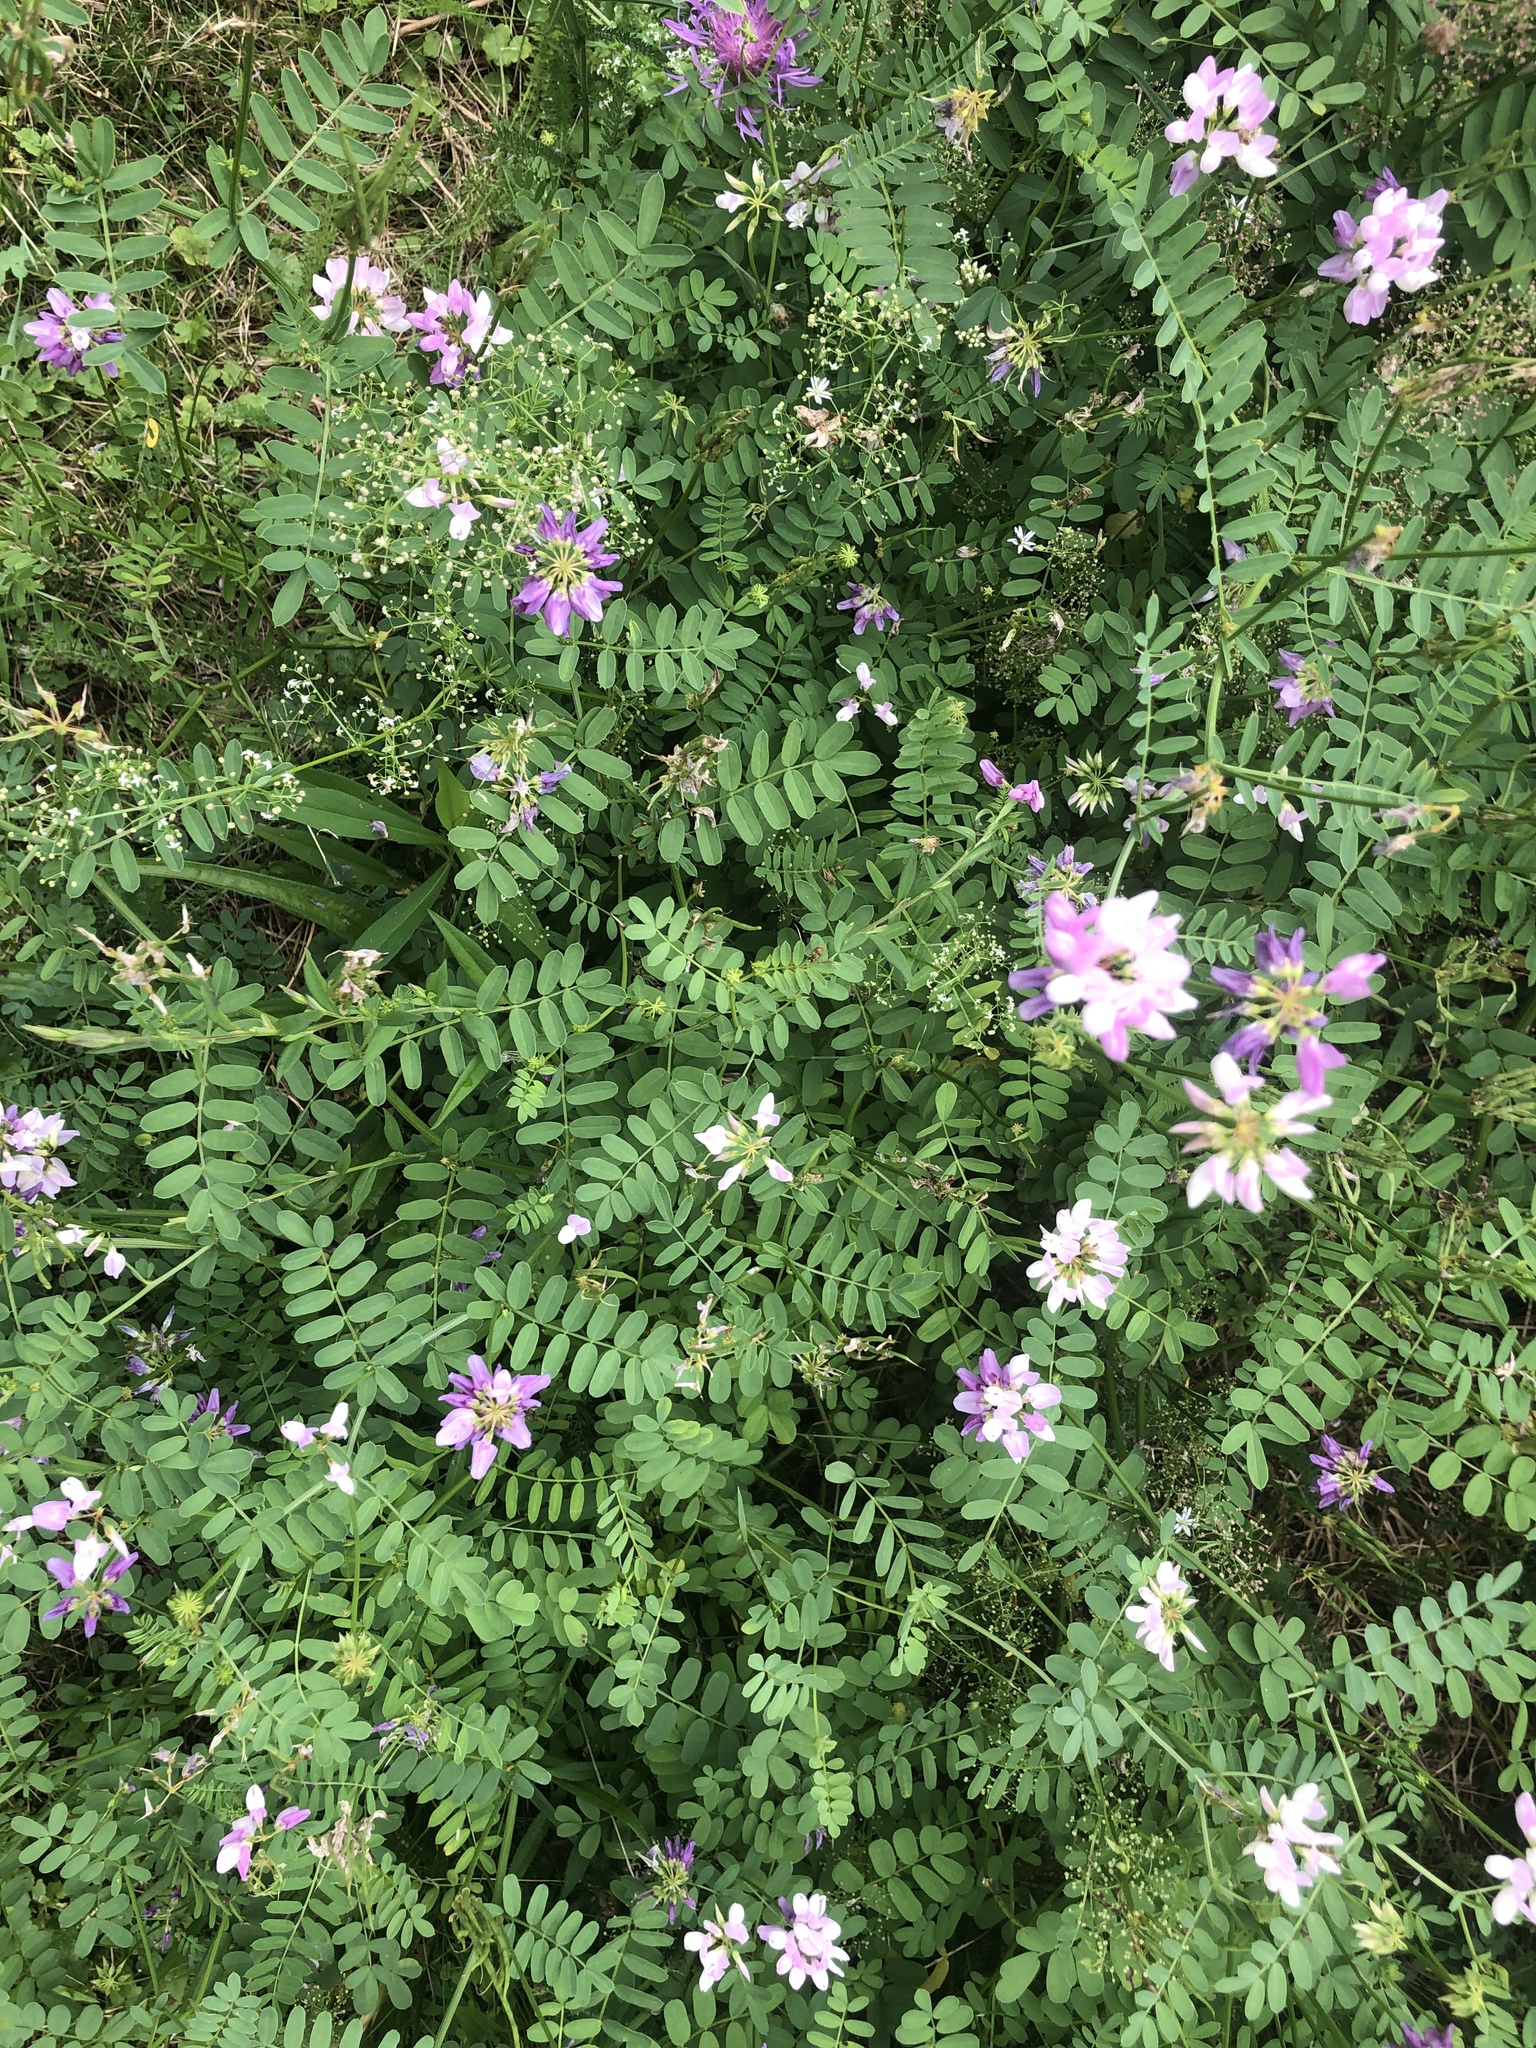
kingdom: Plantae
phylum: Tracheophyta
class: Magnoliopsida
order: Fabales
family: Fabaceae
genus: Coronilla
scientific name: Coronilla varia
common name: Crownvetch
